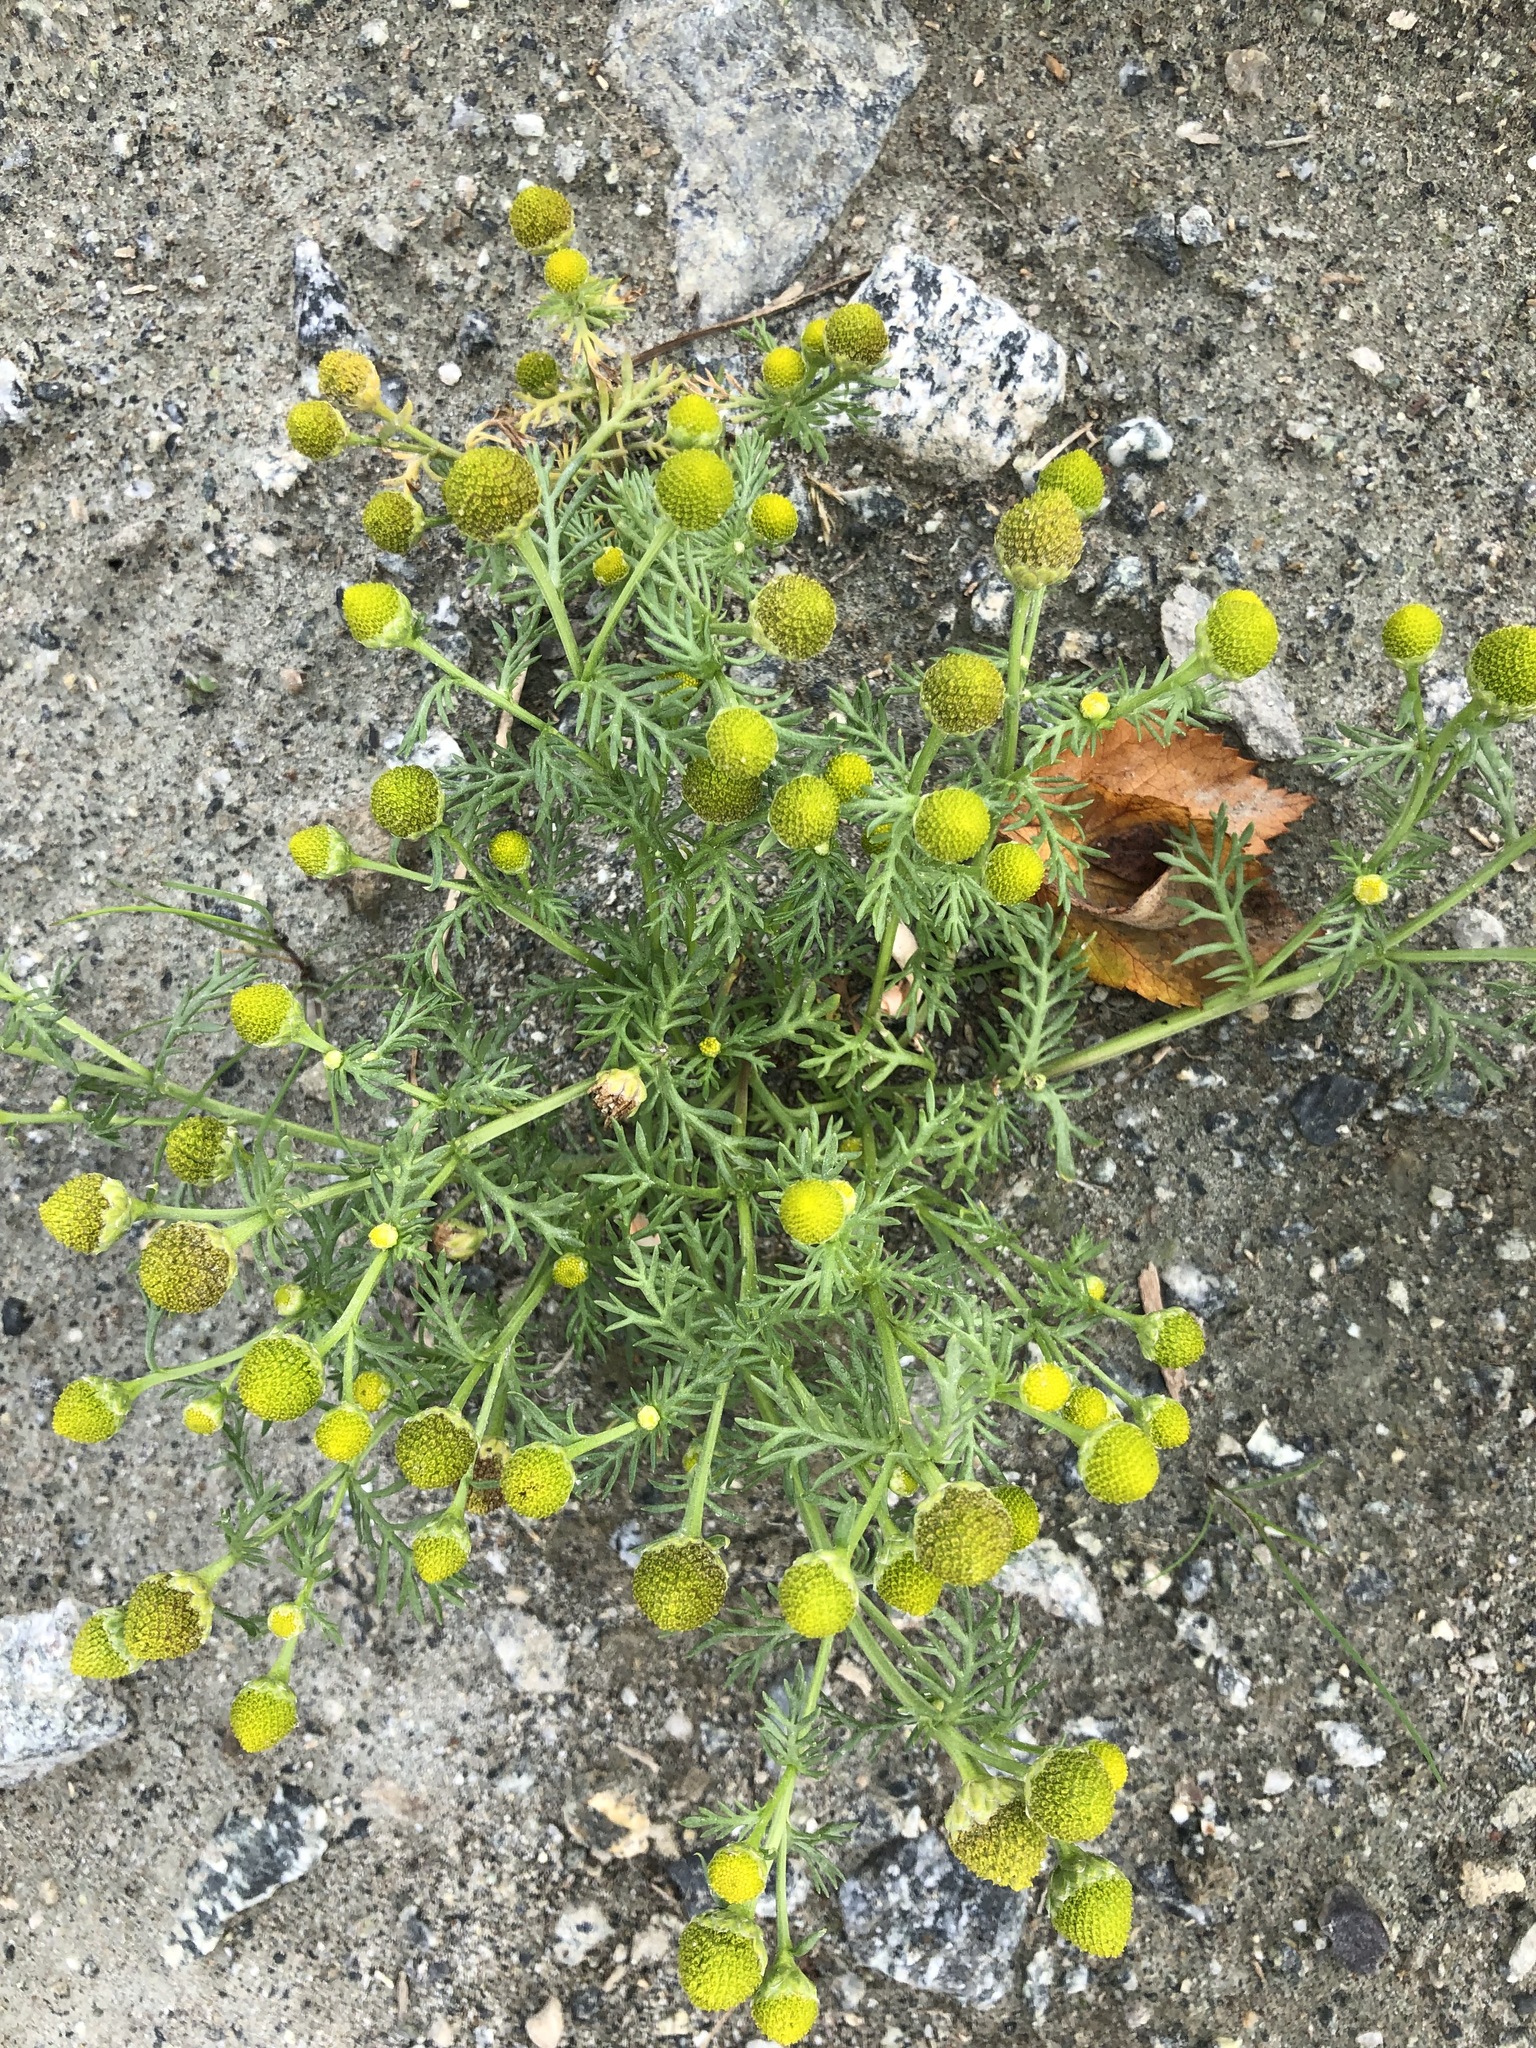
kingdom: Plantae
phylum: Tracheophyta
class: Magnoliopsida
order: Asterales
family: Asteraceae
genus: Matricaria
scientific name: Matricaria discoidea
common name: Disc mayweed
